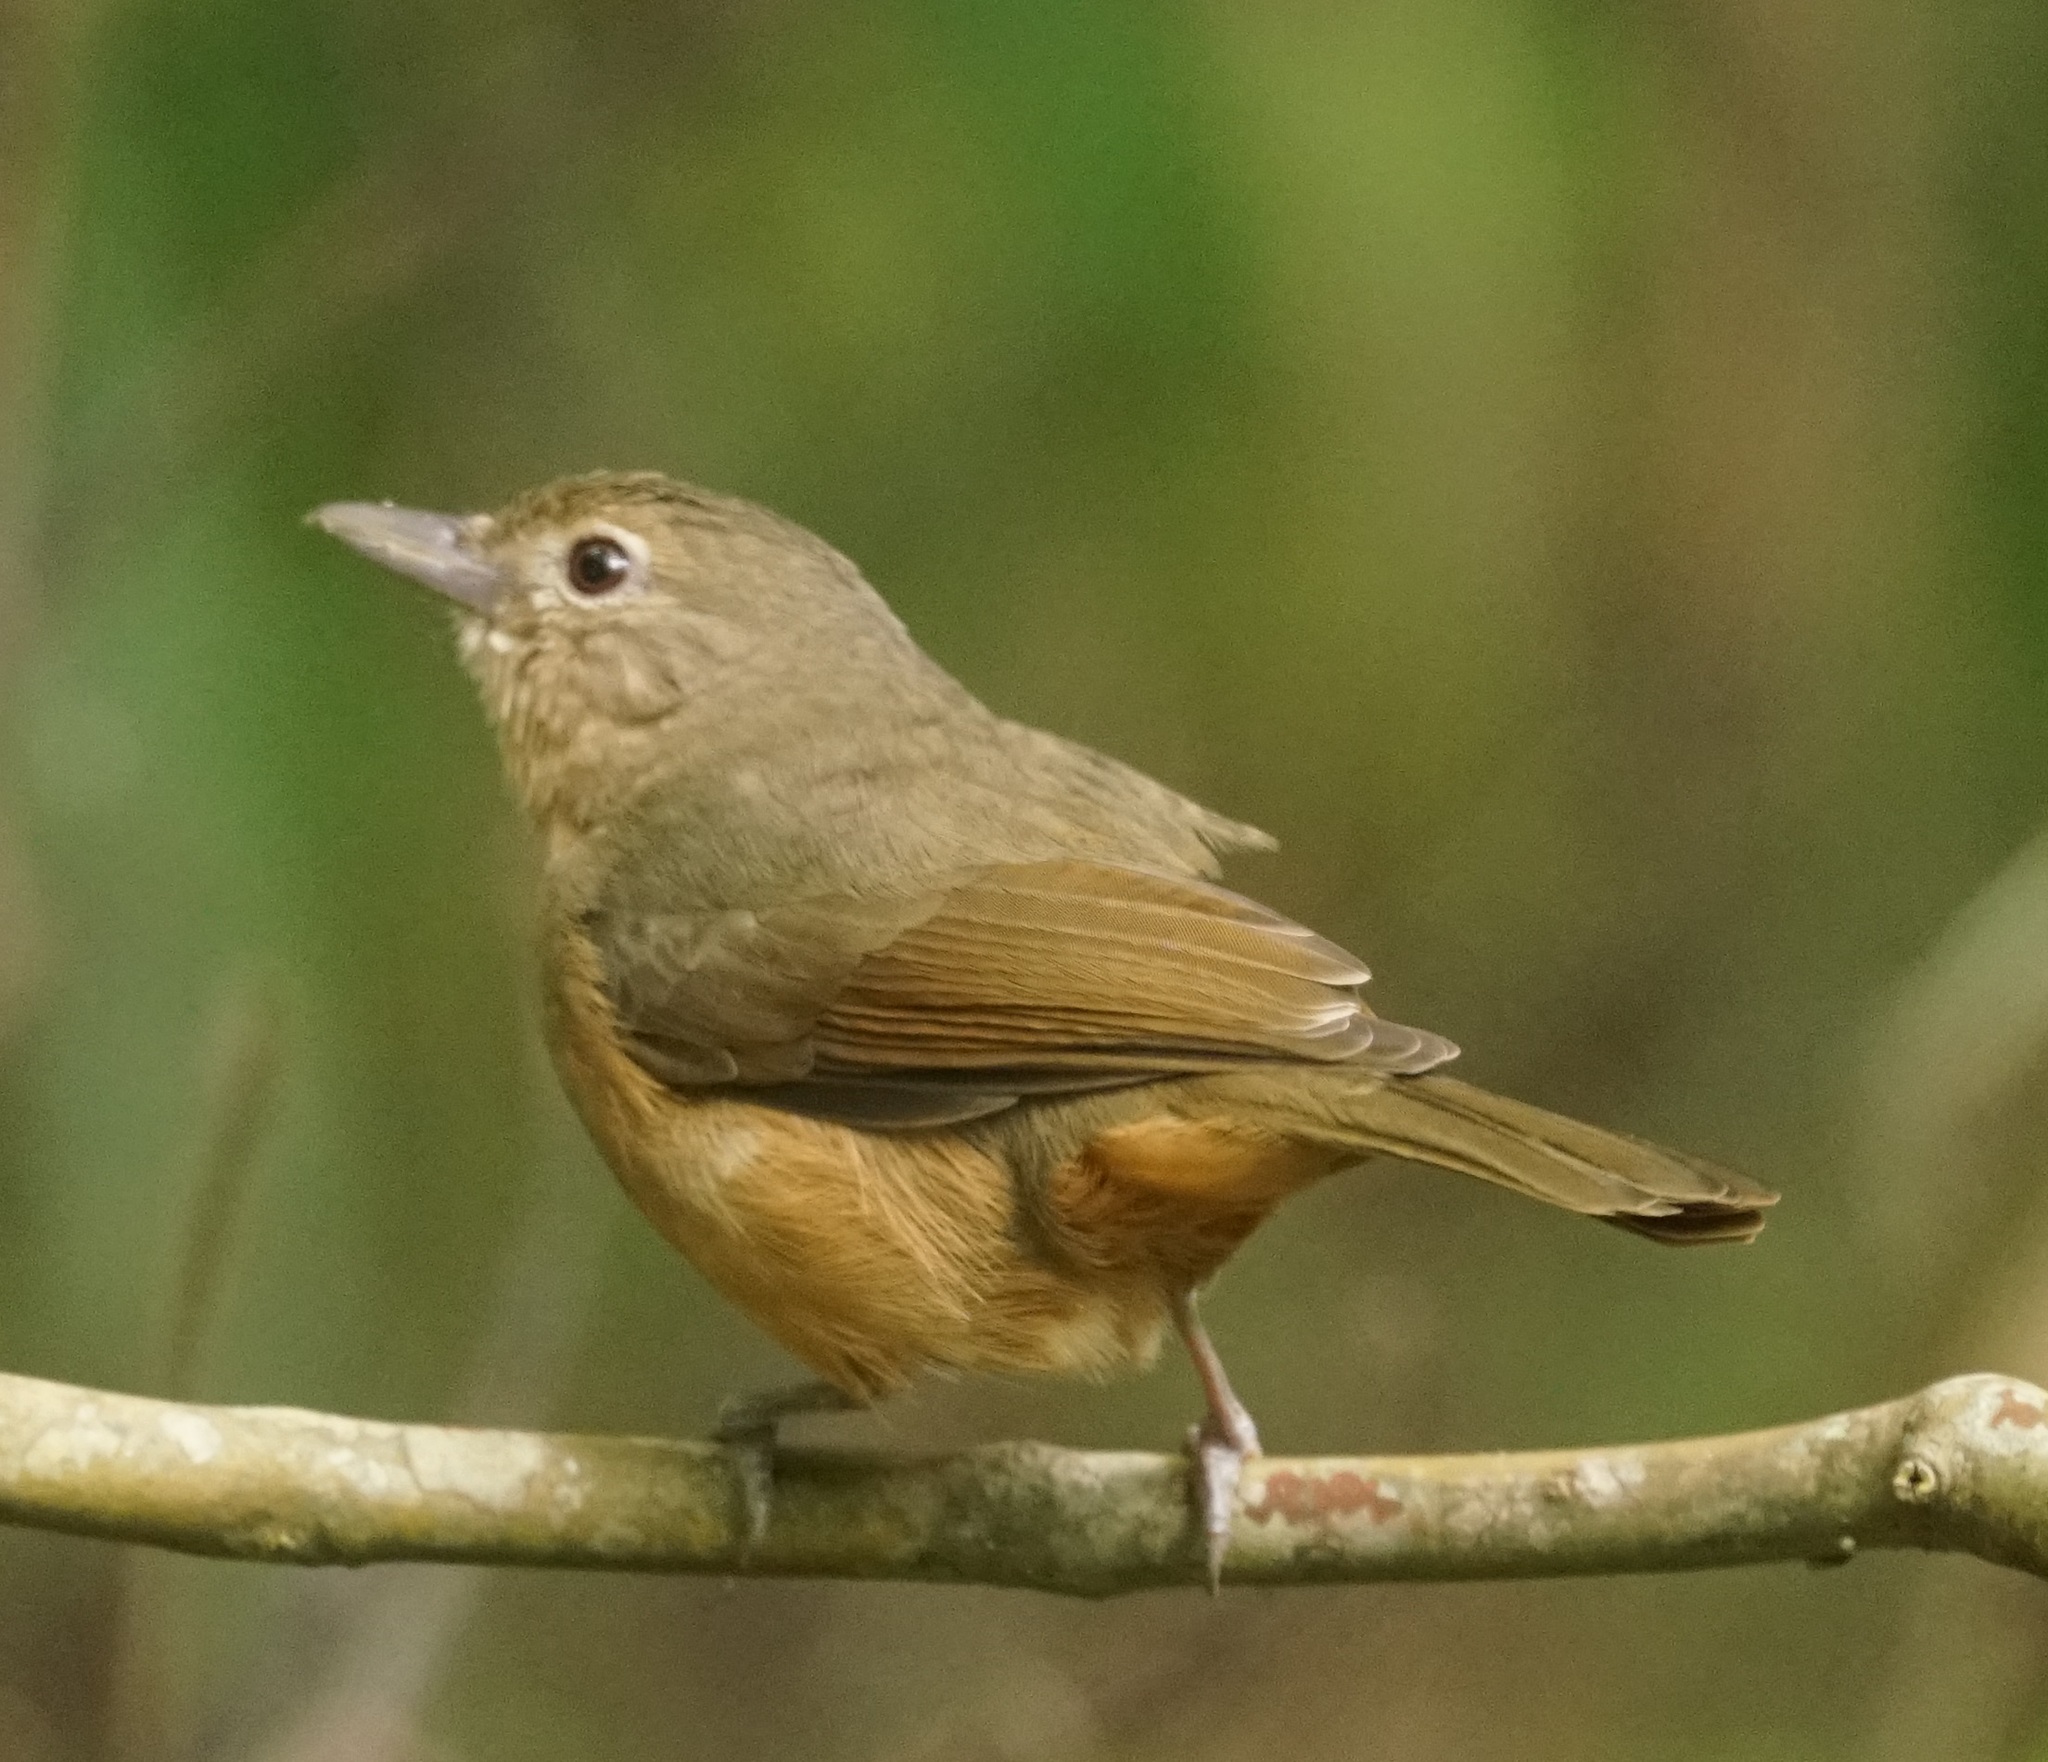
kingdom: Animalia
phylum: Chordata
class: Aves
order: Passeriformes
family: Pachycephalidae
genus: Colluricincla
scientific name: Colluricincla rufogaster
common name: Rufous shrikethrush
